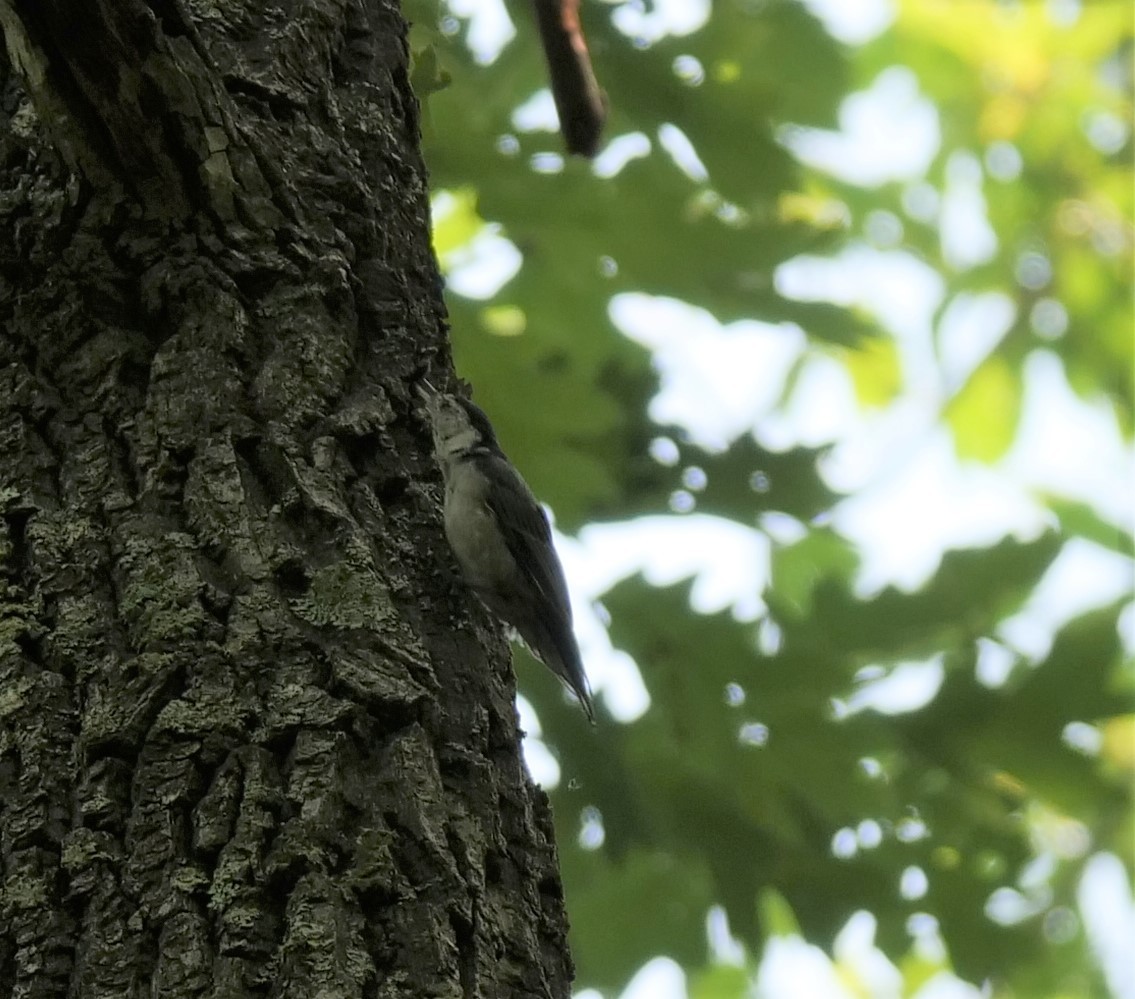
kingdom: Animalia
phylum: Chordata
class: Aves
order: Passeriformes
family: Sittidae
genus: Sitta
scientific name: Sitta carolinensis
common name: White-breasted nuthatch
